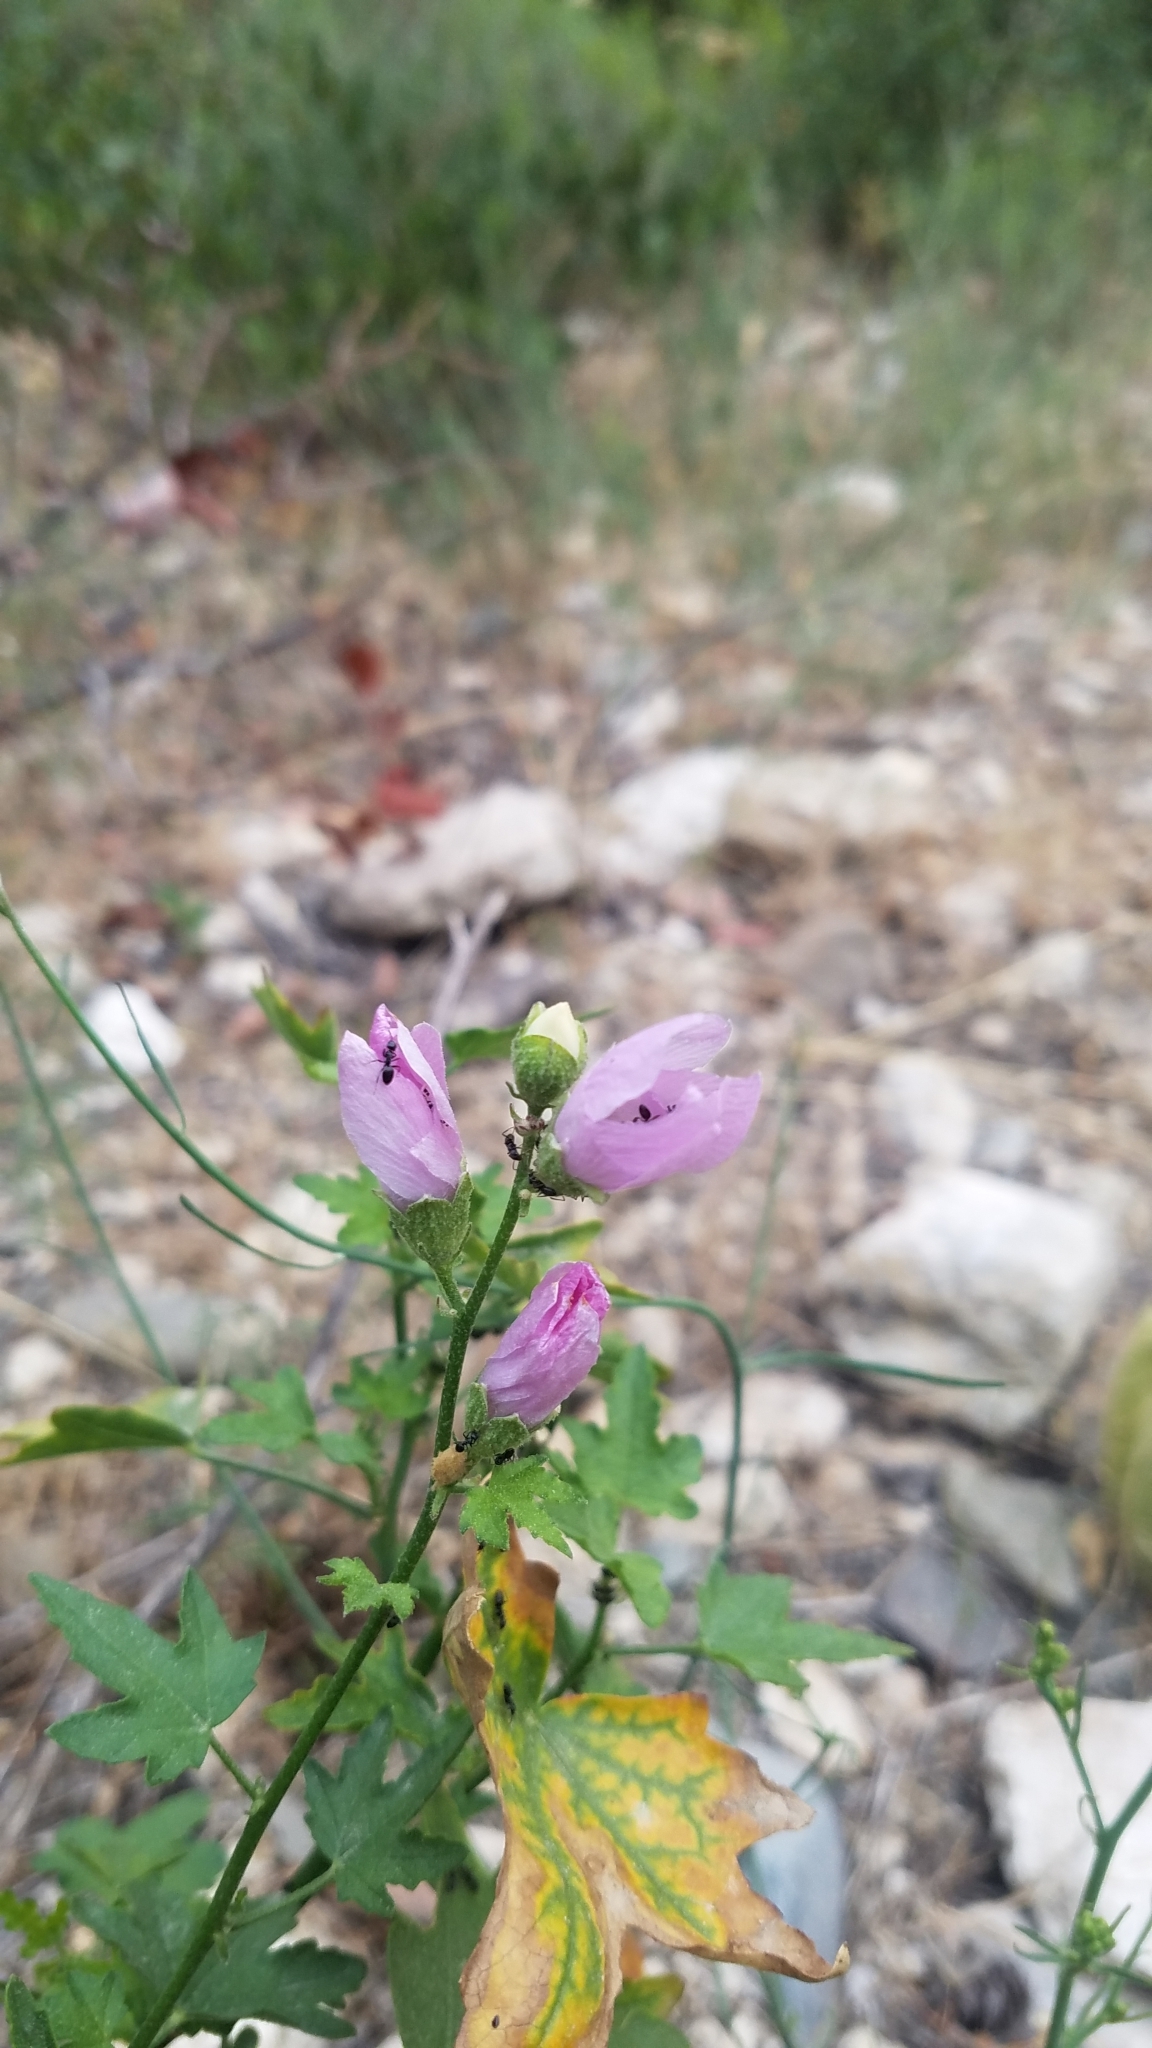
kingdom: Plantae
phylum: Tracheophyta
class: Magnoliopsida
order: Malvales
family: Malvaceae
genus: Iliamna
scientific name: Iliamna rivularis
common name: Wild hollyhock
